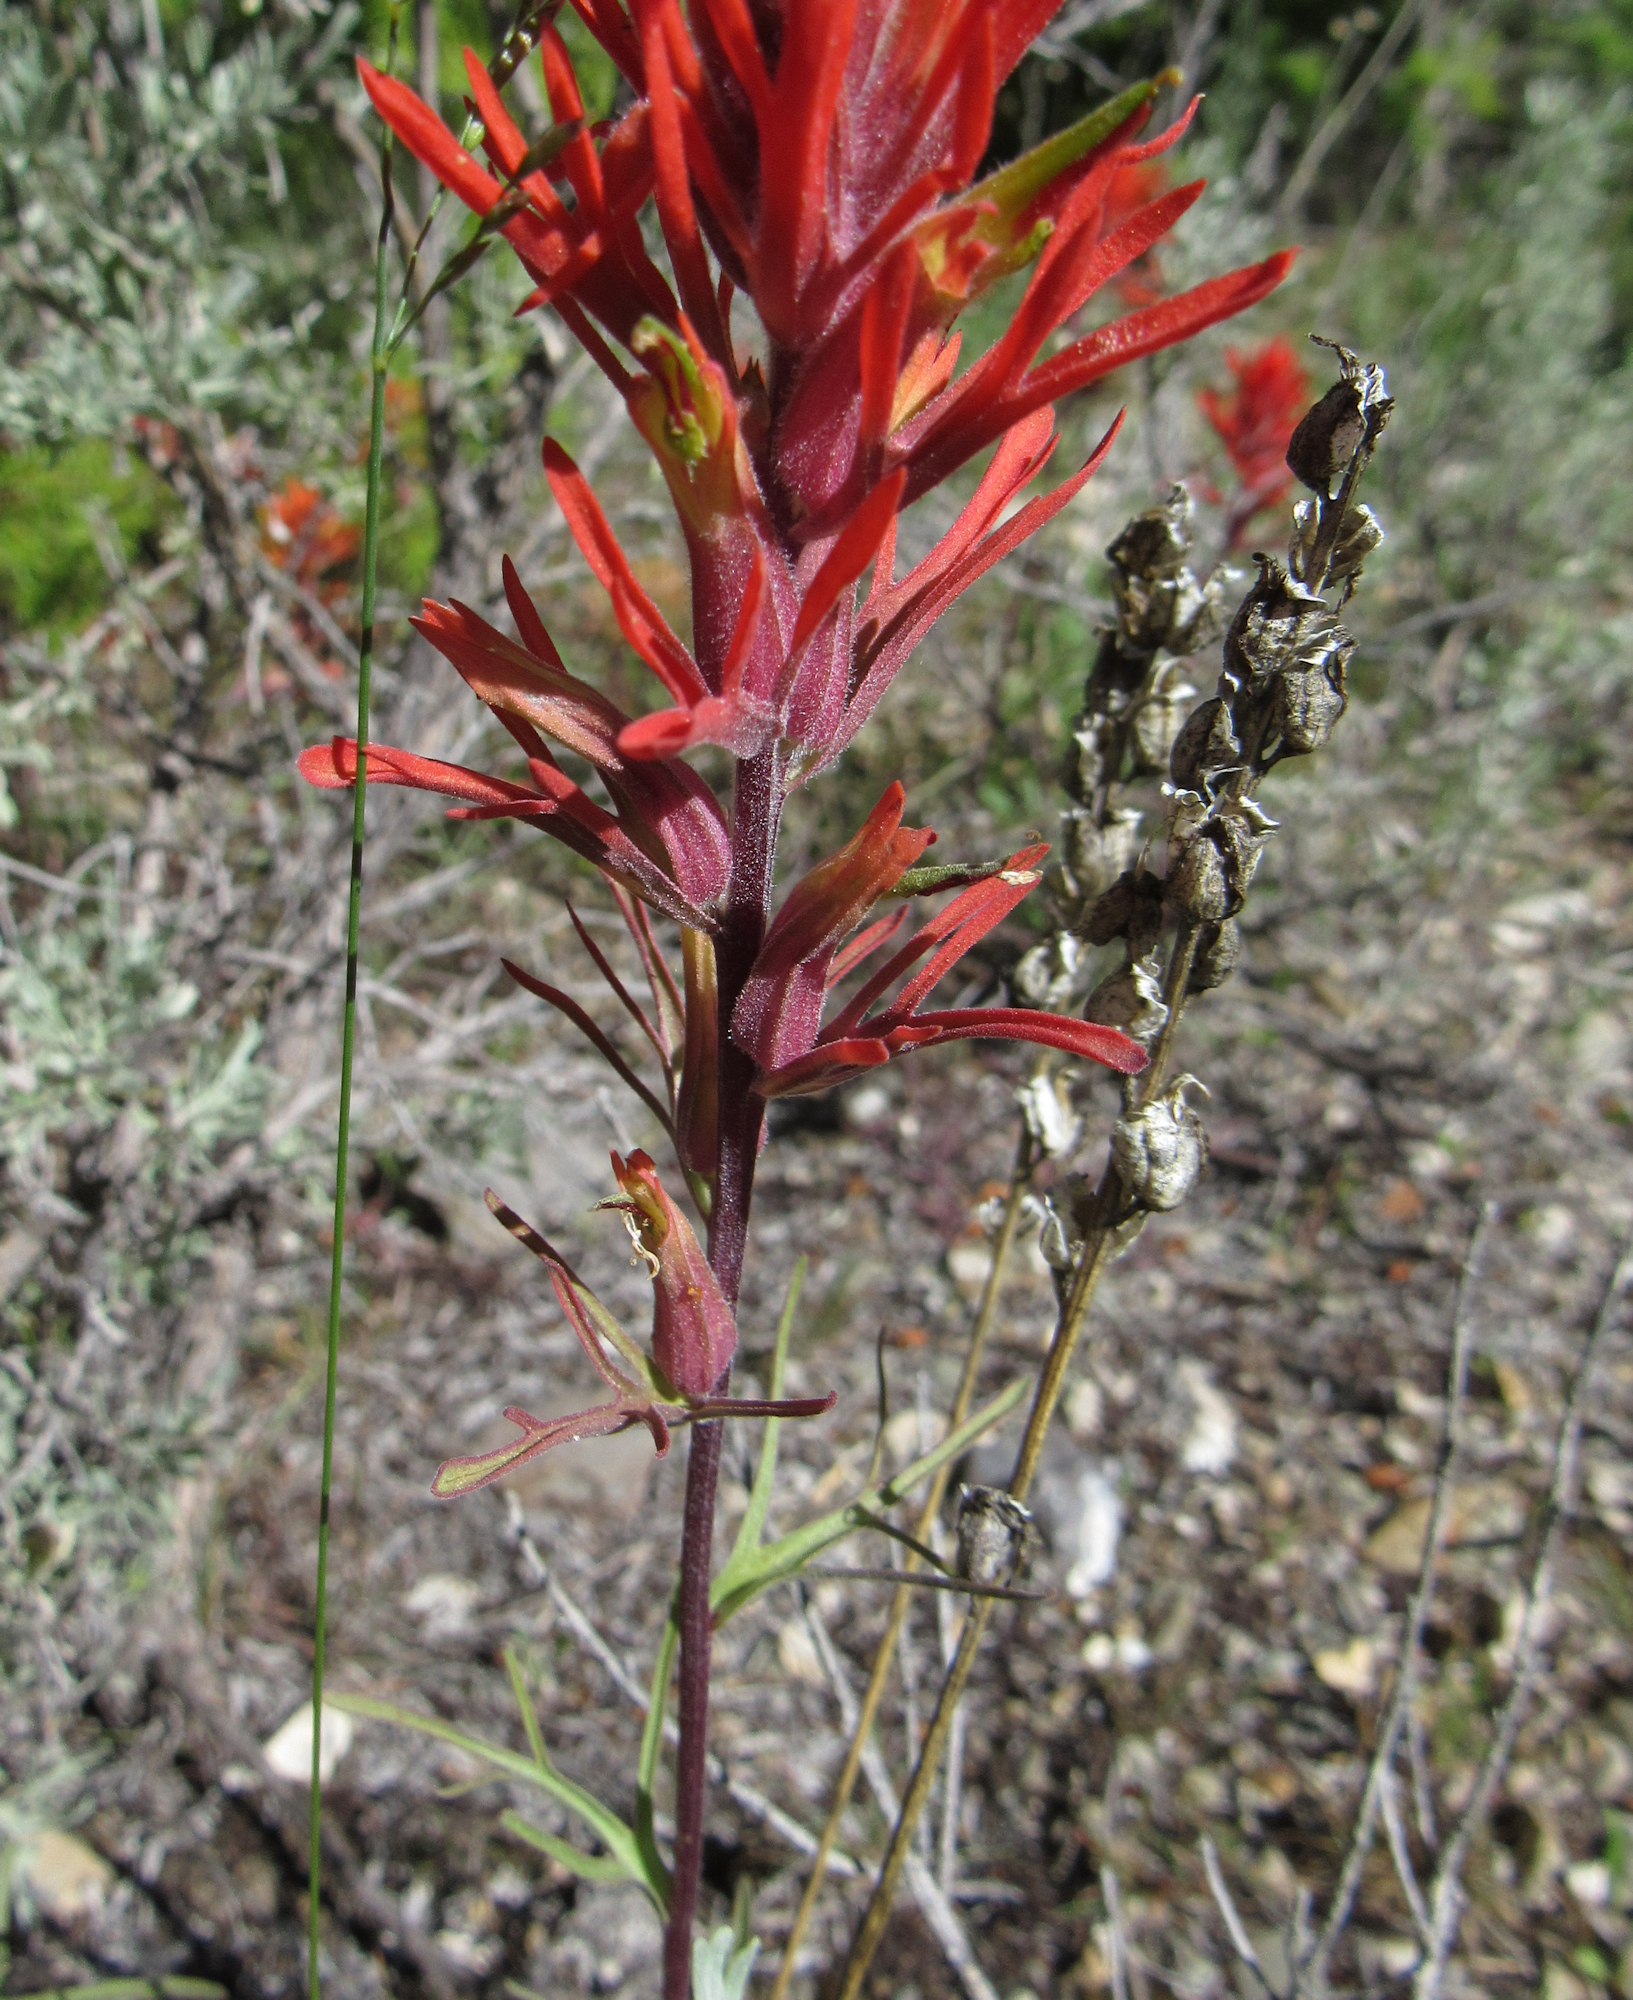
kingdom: Plantae
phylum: Tracheophyta
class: Magnoliopsida
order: Lamiales
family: Orobanchaceae
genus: Castilleja
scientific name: Castilleja covilleana
